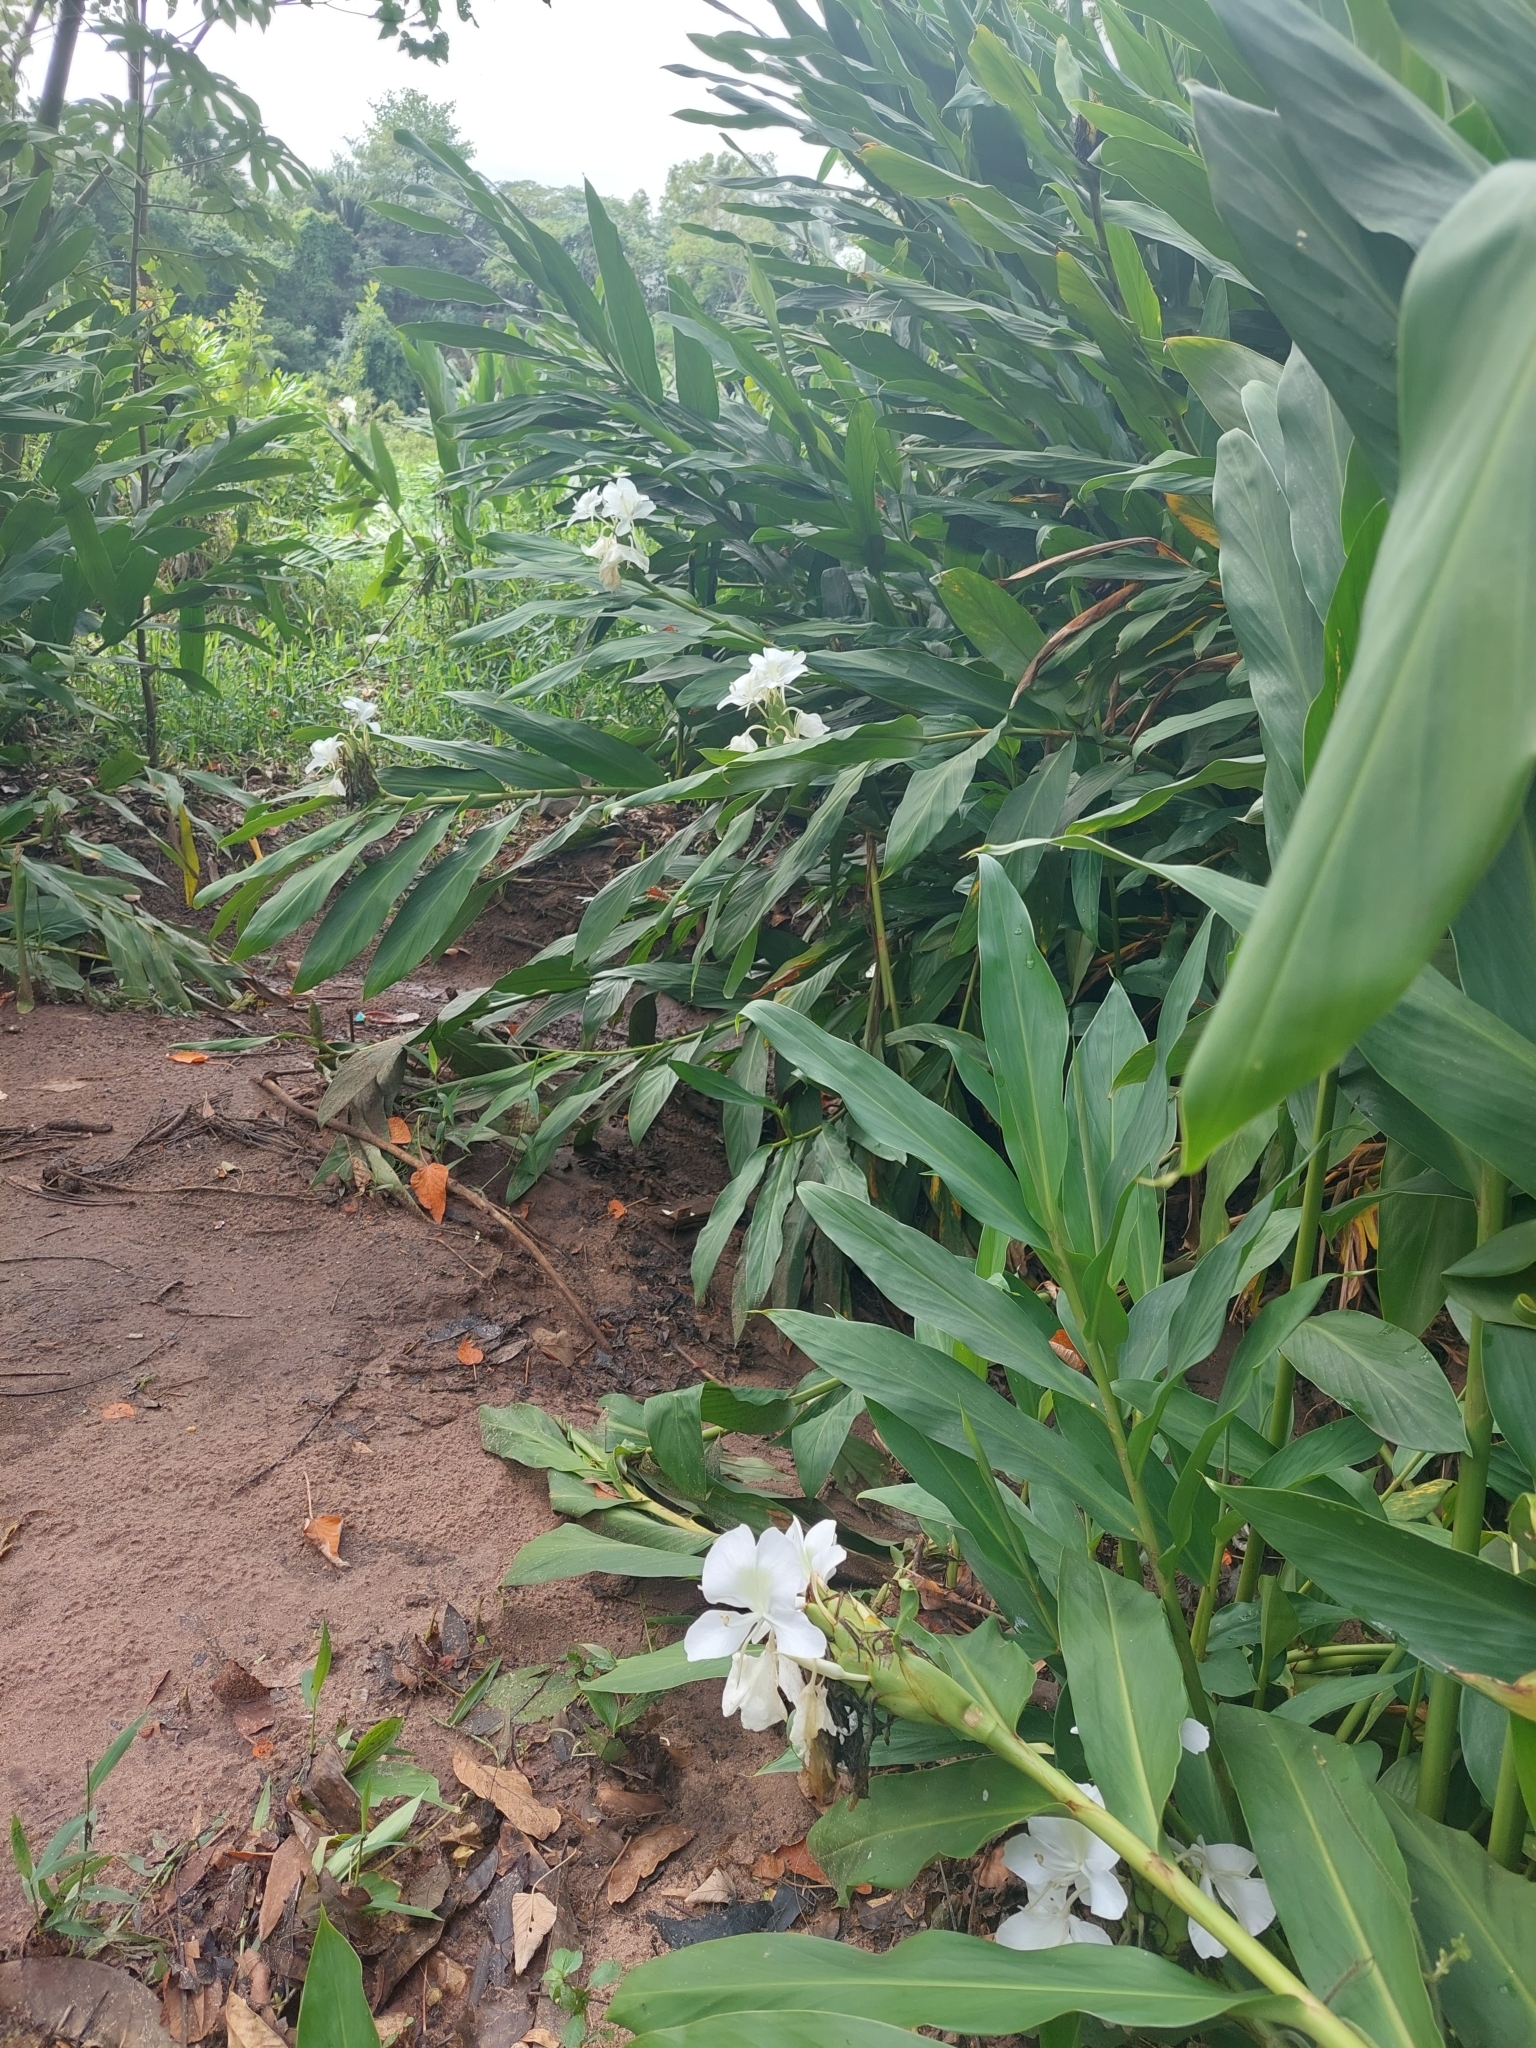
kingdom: Plantae
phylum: Tracheophyta
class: Liliopsida
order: Zingiberales
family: Zingiberaceae
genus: Hedychium
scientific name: Hedychium coronarium
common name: White garland-lily
